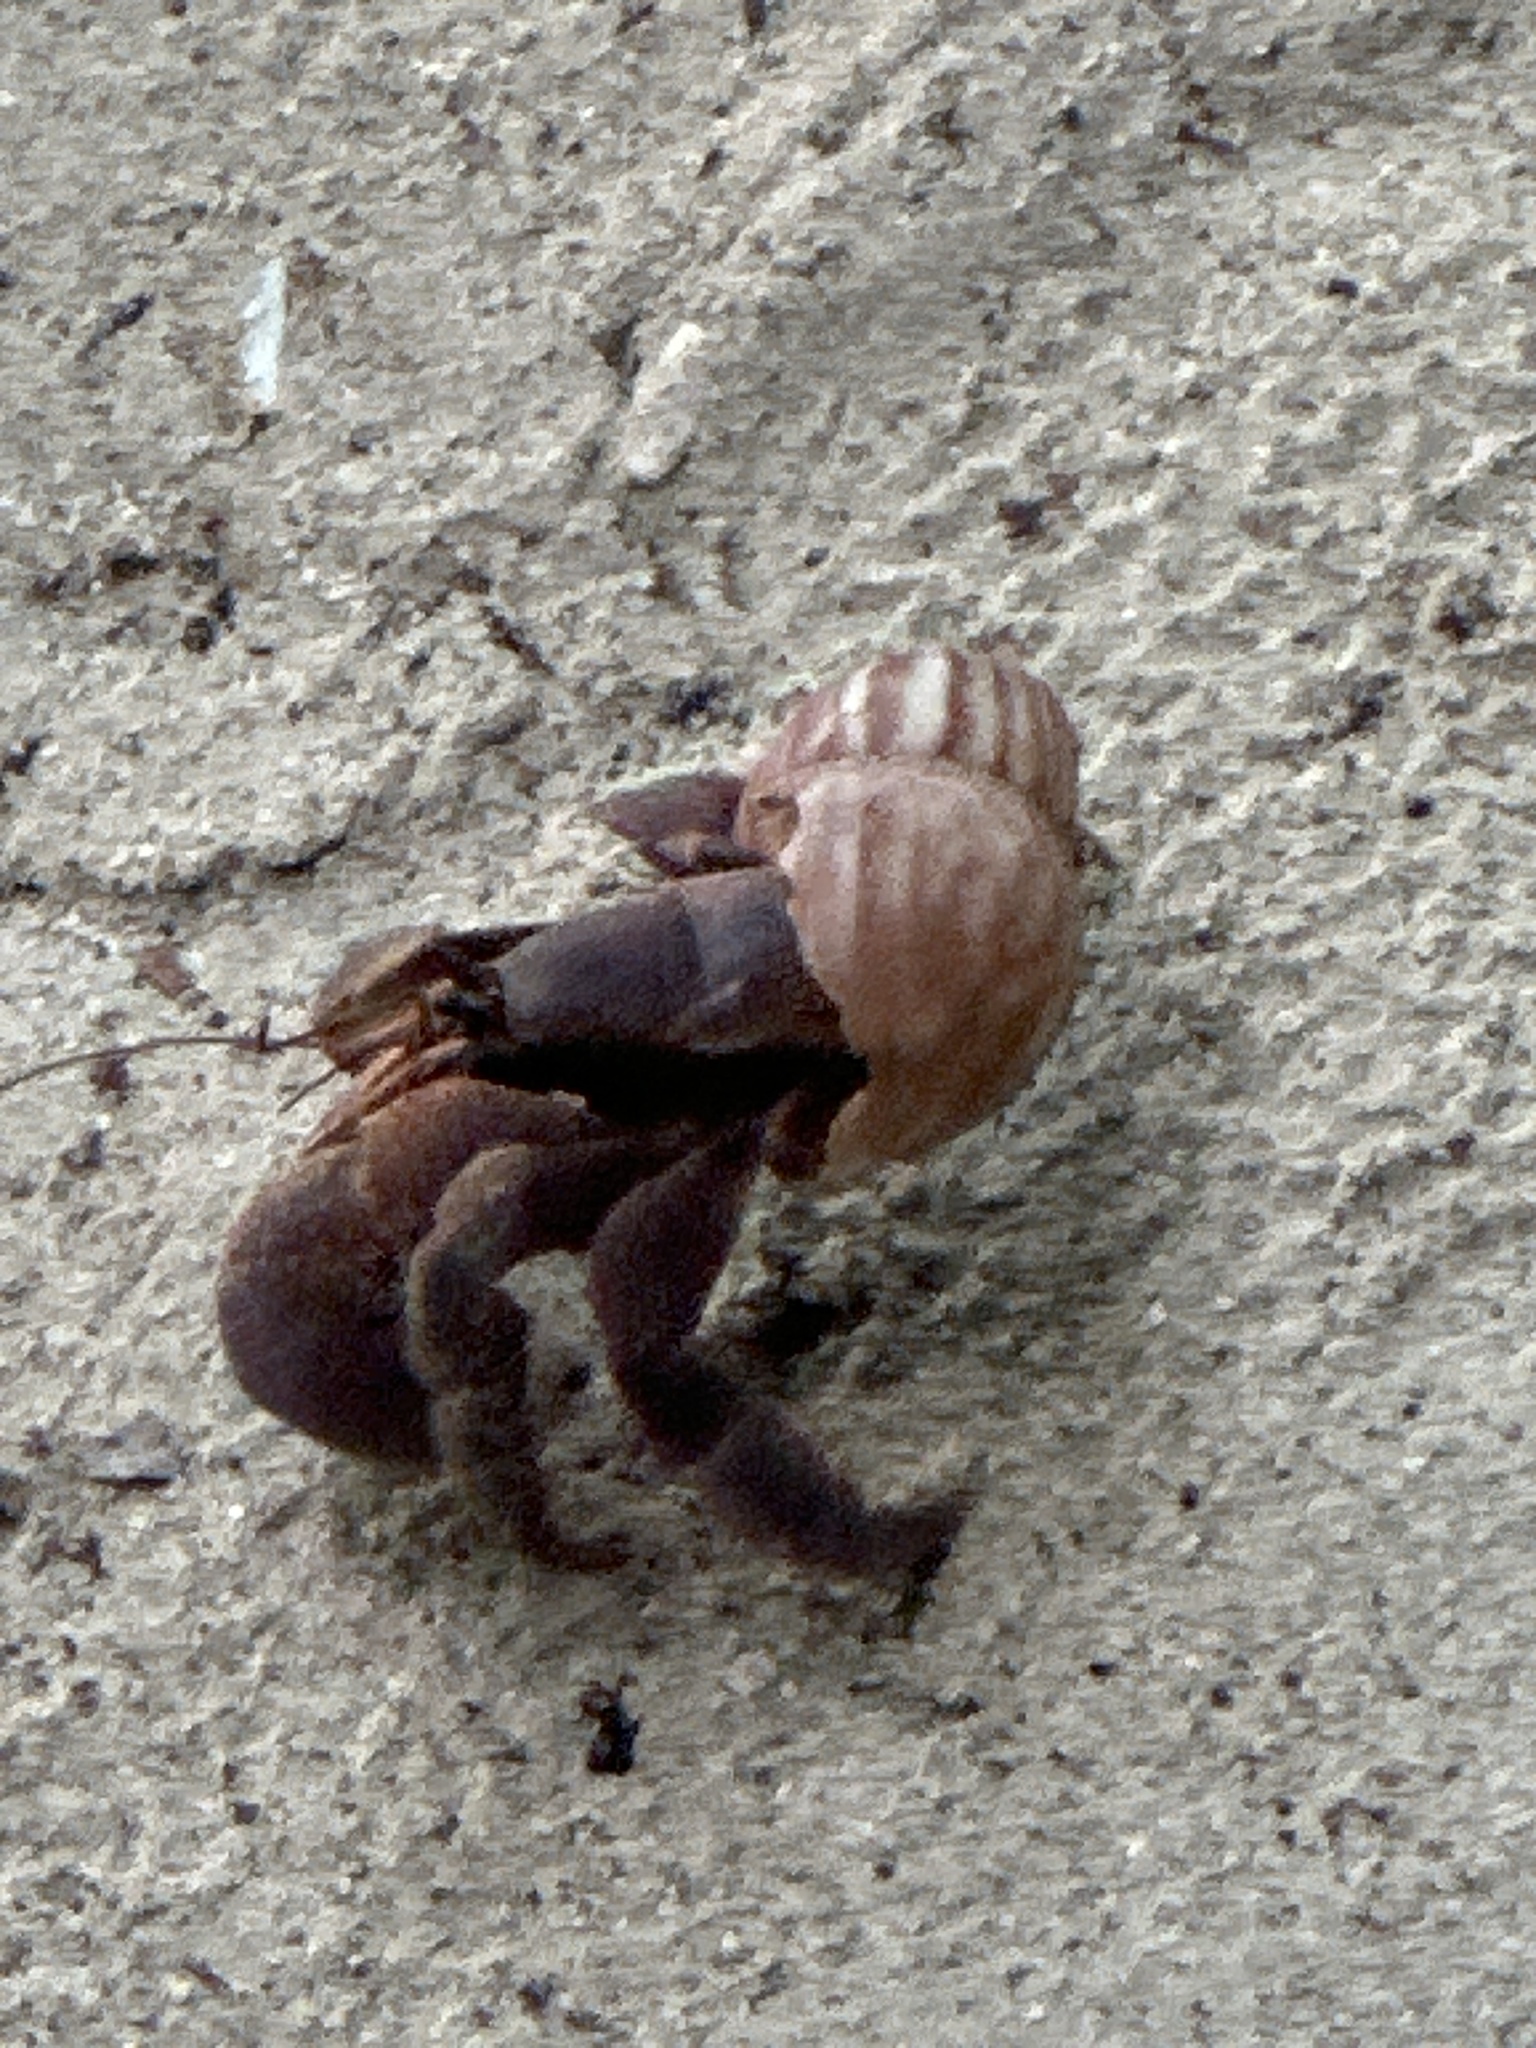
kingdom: Animalia
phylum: Arthropoda
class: Malacostraca
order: Decapoda
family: Coenobitidae
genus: Coenobita
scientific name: Coenobita brevimanus
